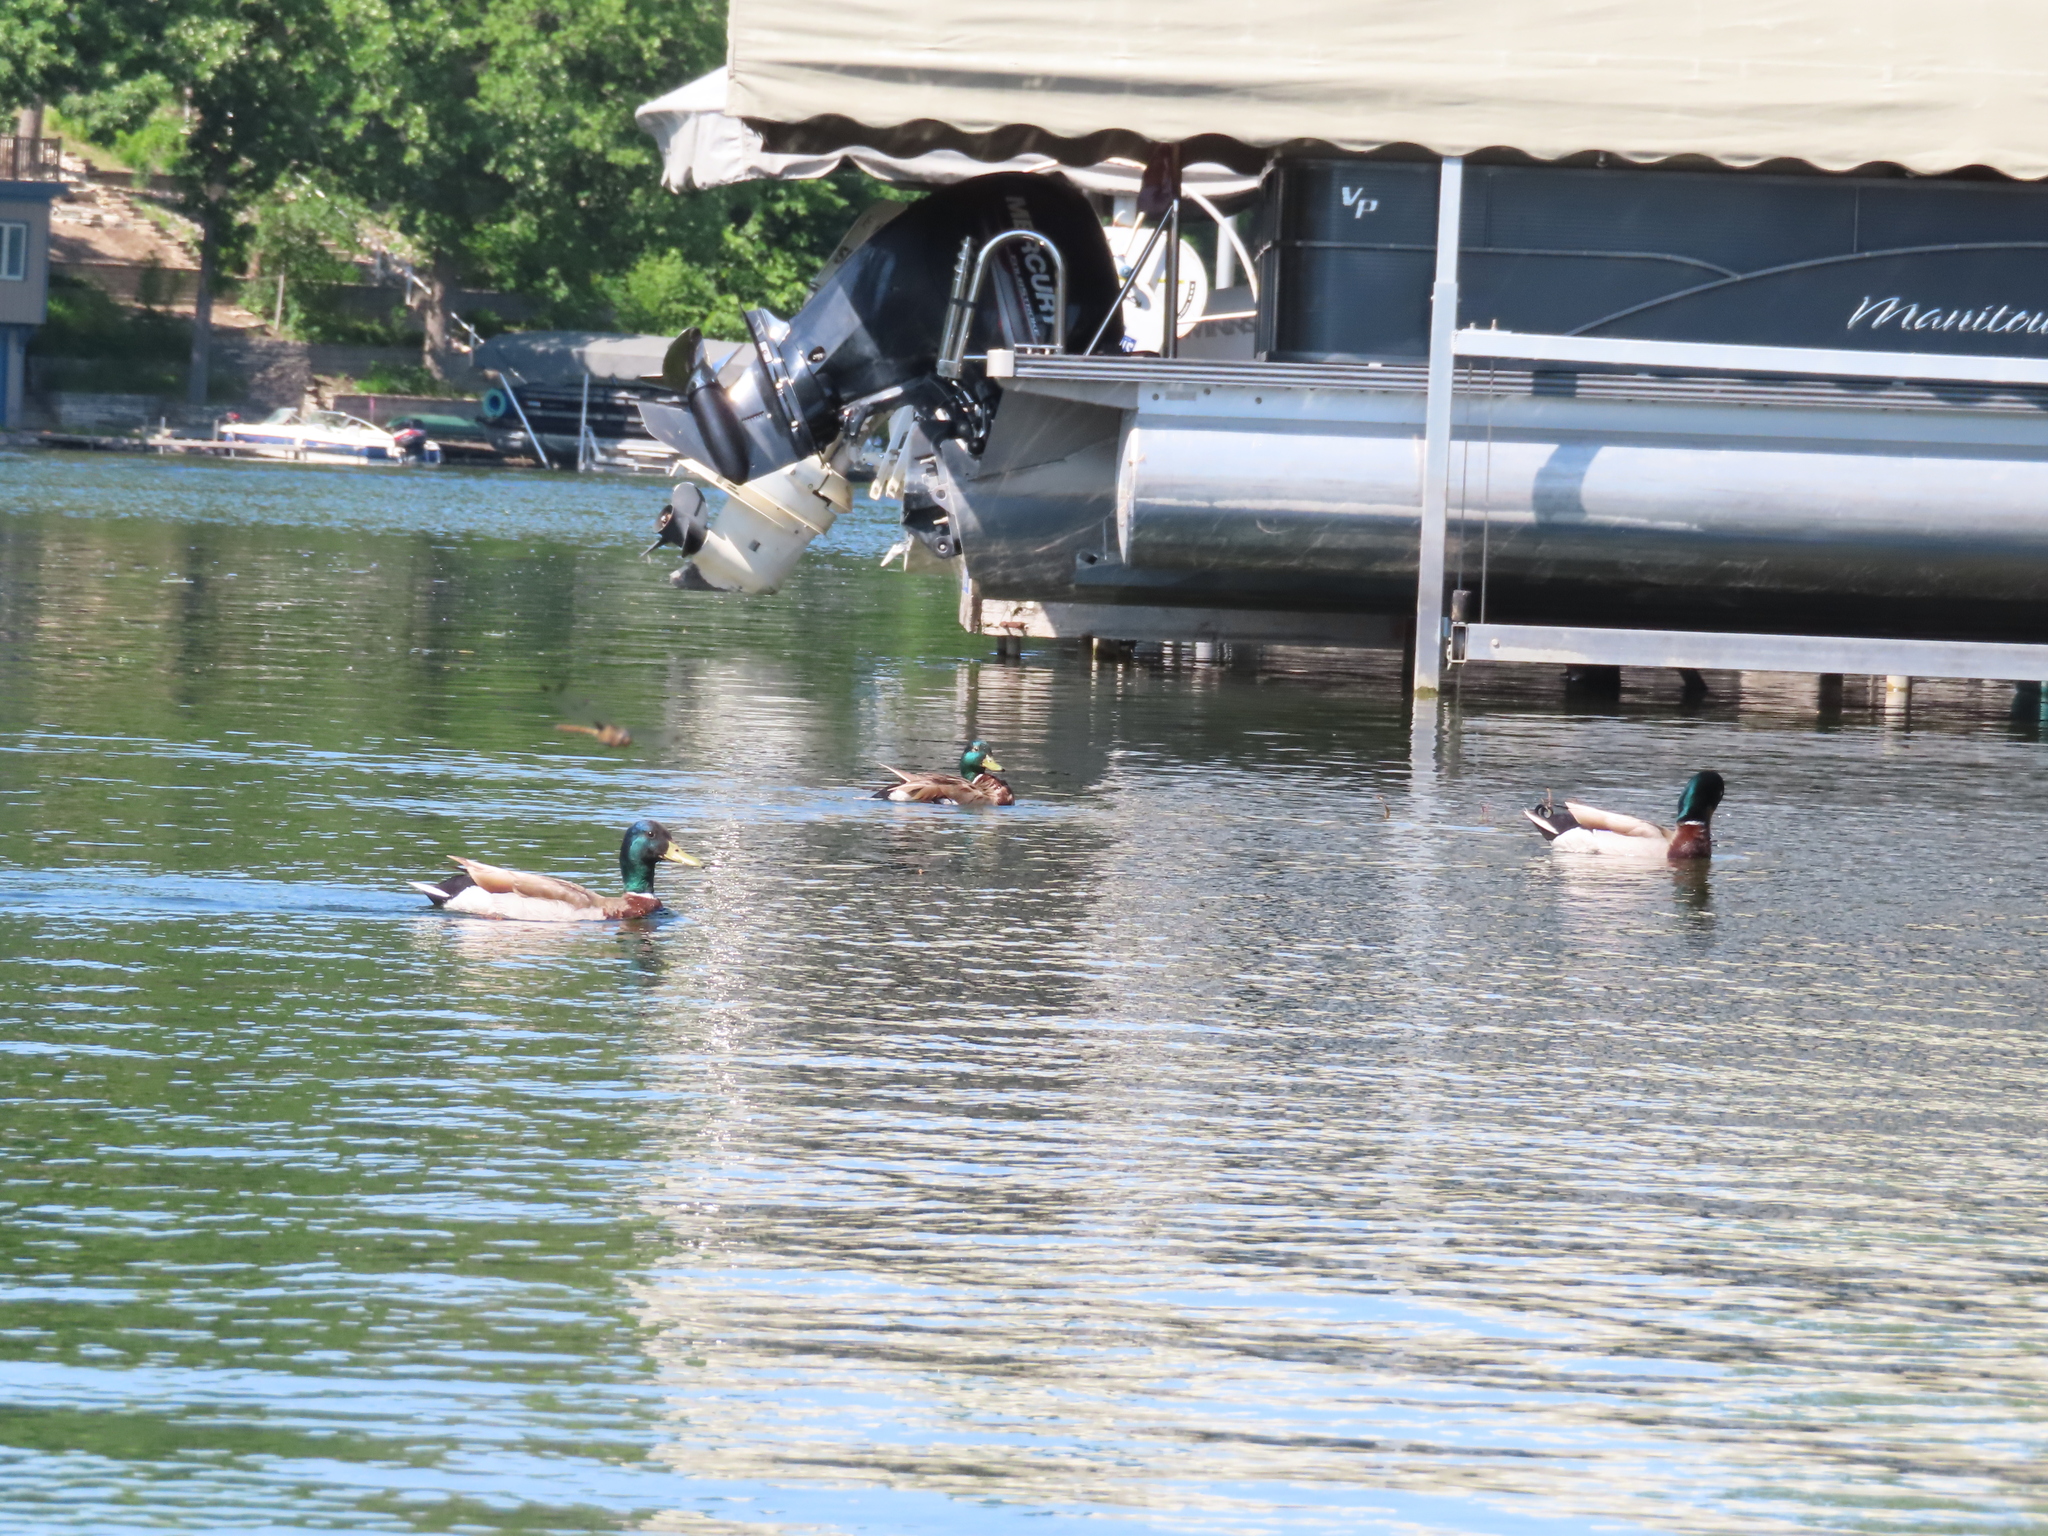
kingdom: Animalia
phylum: Chordata
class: Aves
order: Anseriformes
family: Anatidae
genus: Anas
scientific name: Anas platyrhynchos
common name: Mallard
